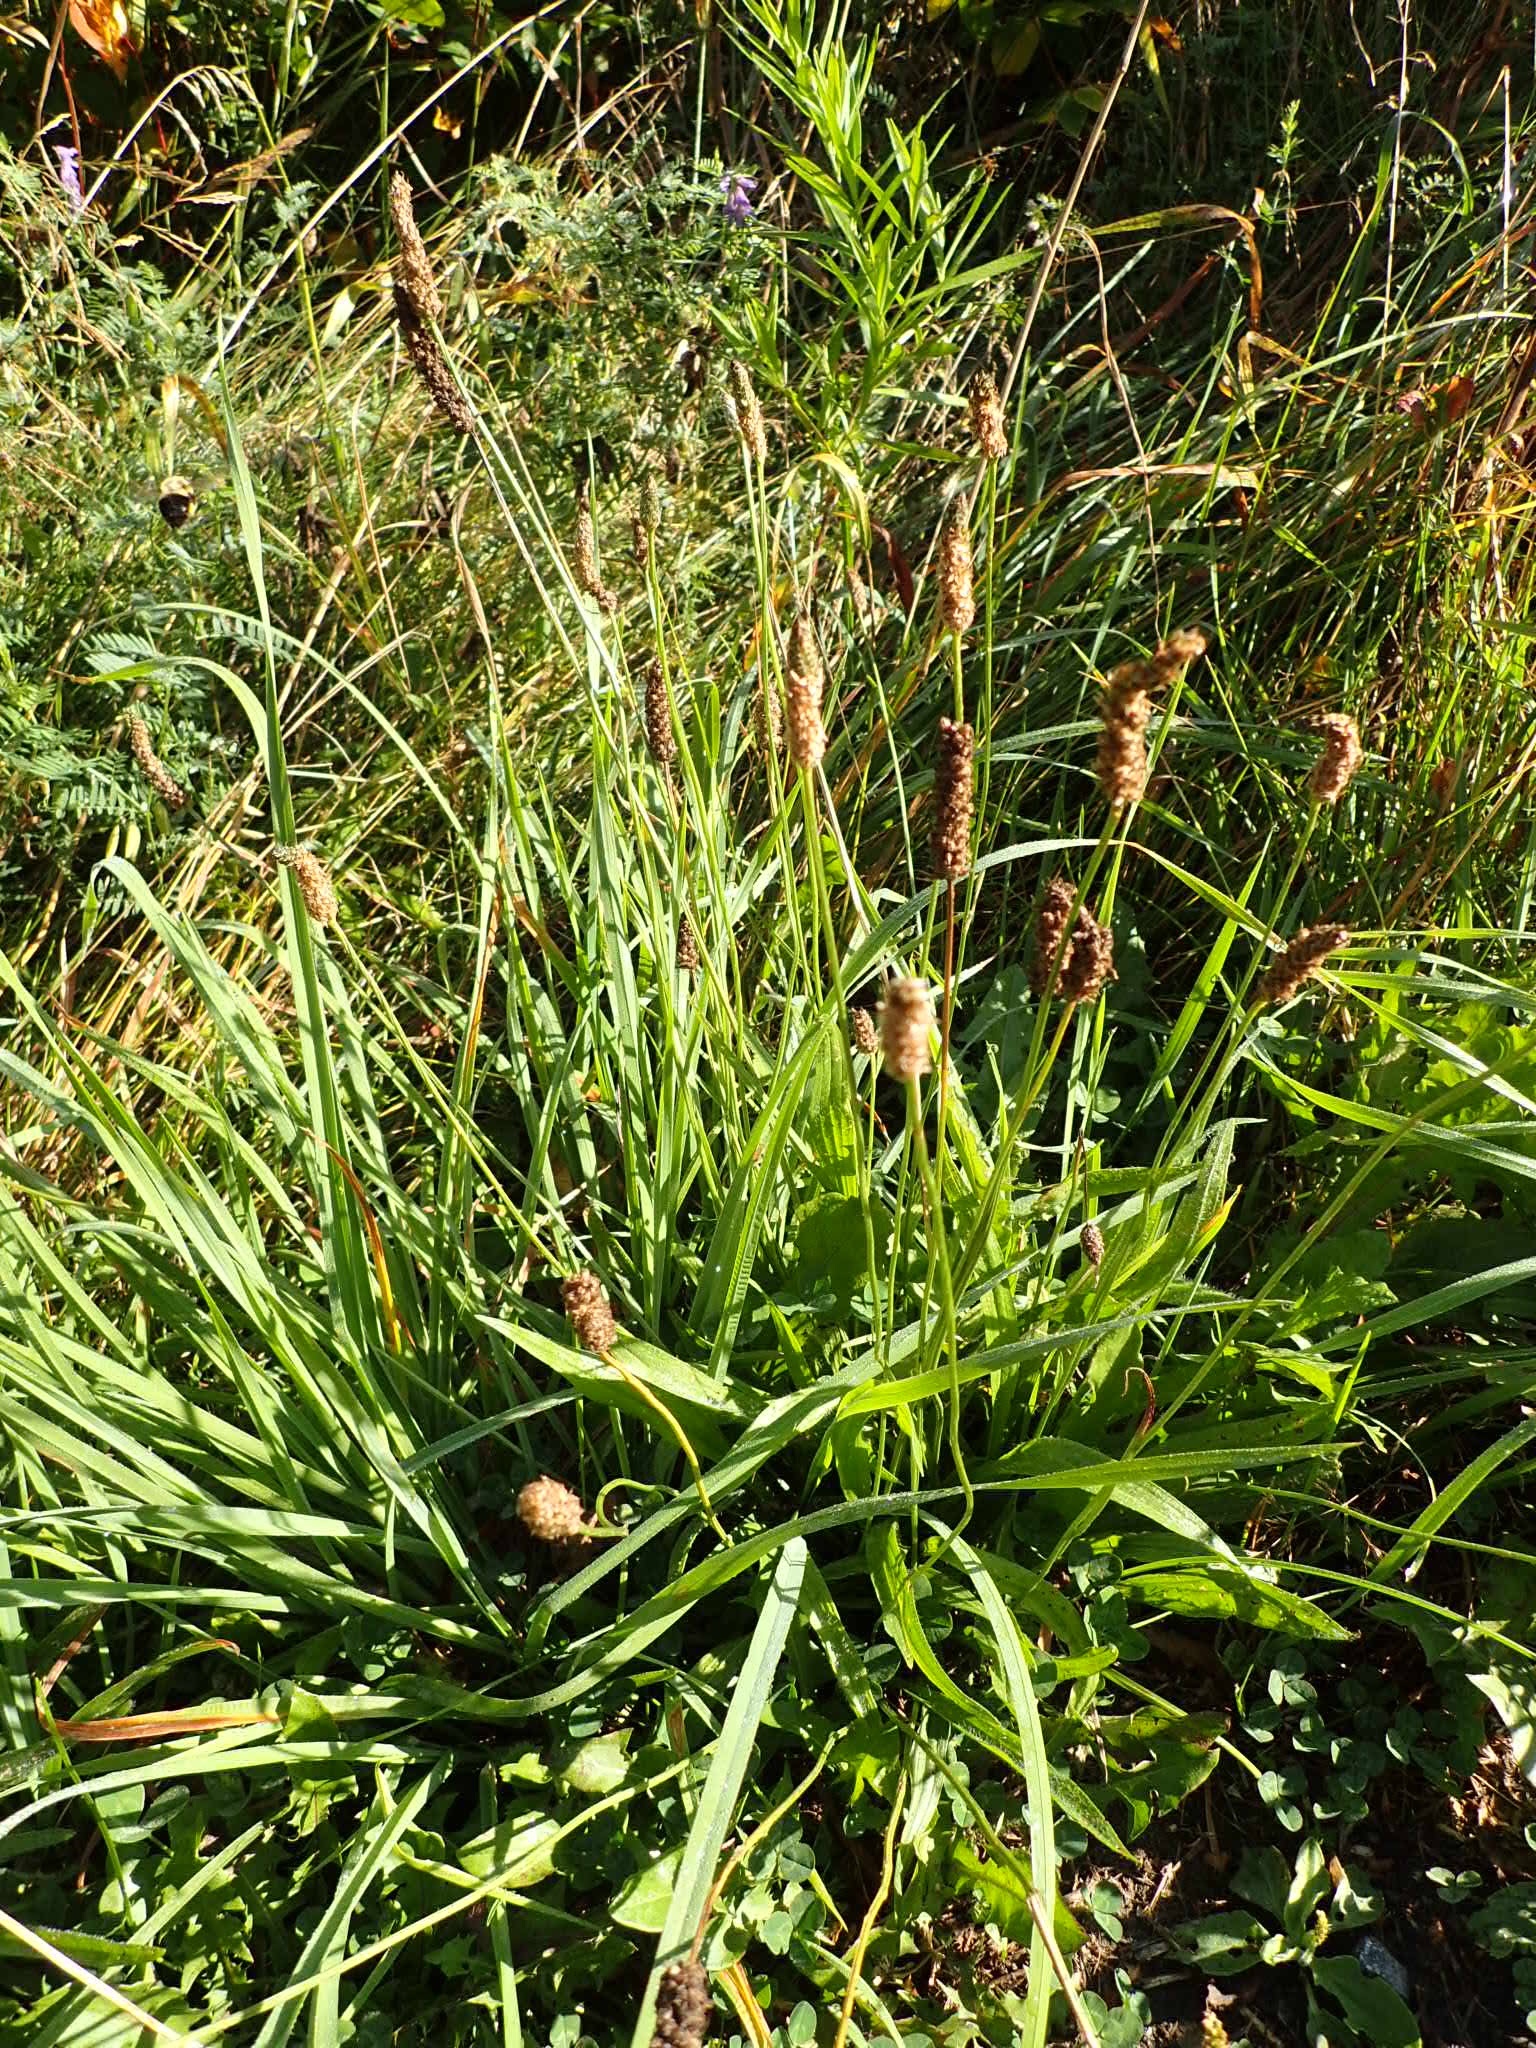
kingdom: Plantae
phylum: Tracheophyta
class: Magnoliopsida
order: Lamiales
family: Plantaginaceae
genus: Plantago
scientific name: Plantago lanceolata
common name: Ribwort plantain
